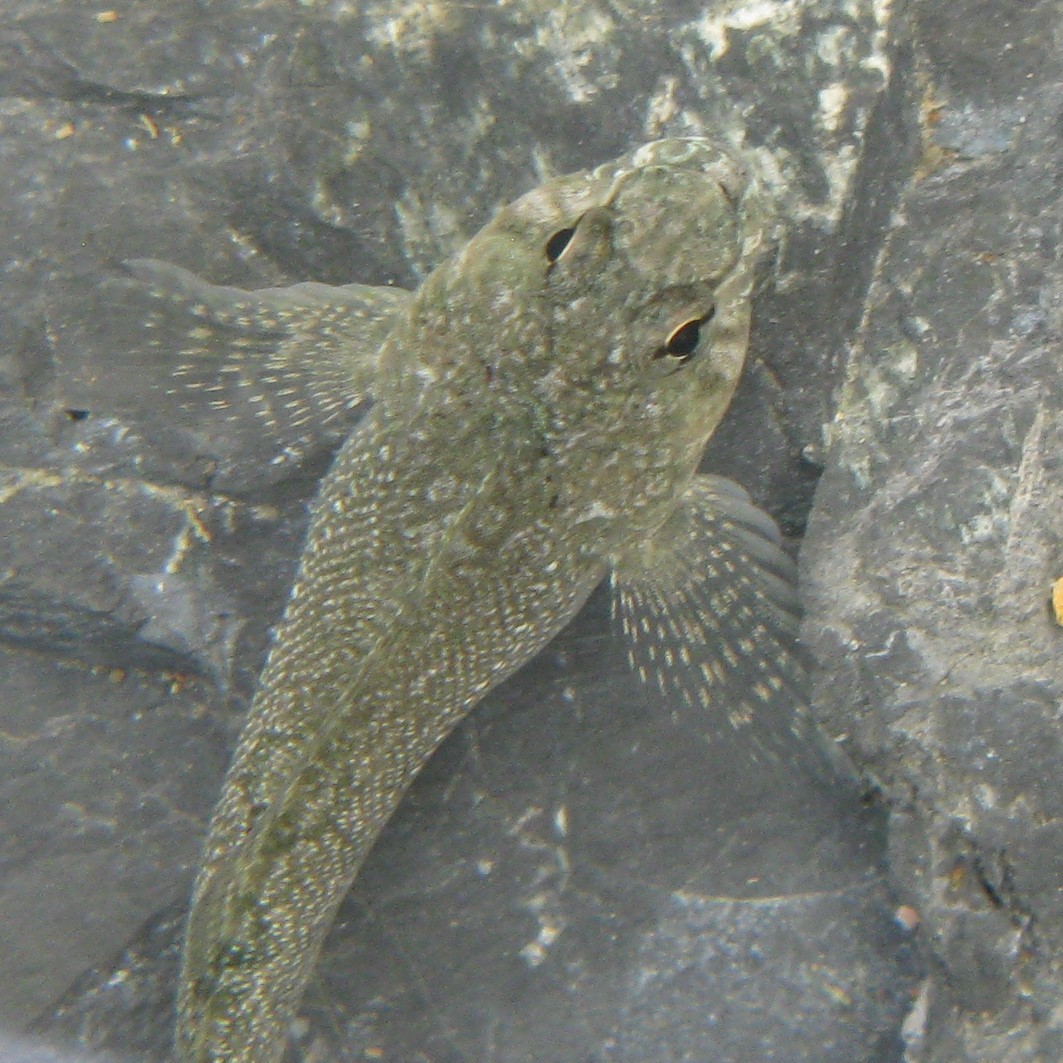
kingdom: Animalia
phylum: Chordata
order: Perciformes
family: Tripterygiidae
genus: Bellapiscis
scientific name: Bellapiscis medius
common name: Twister
